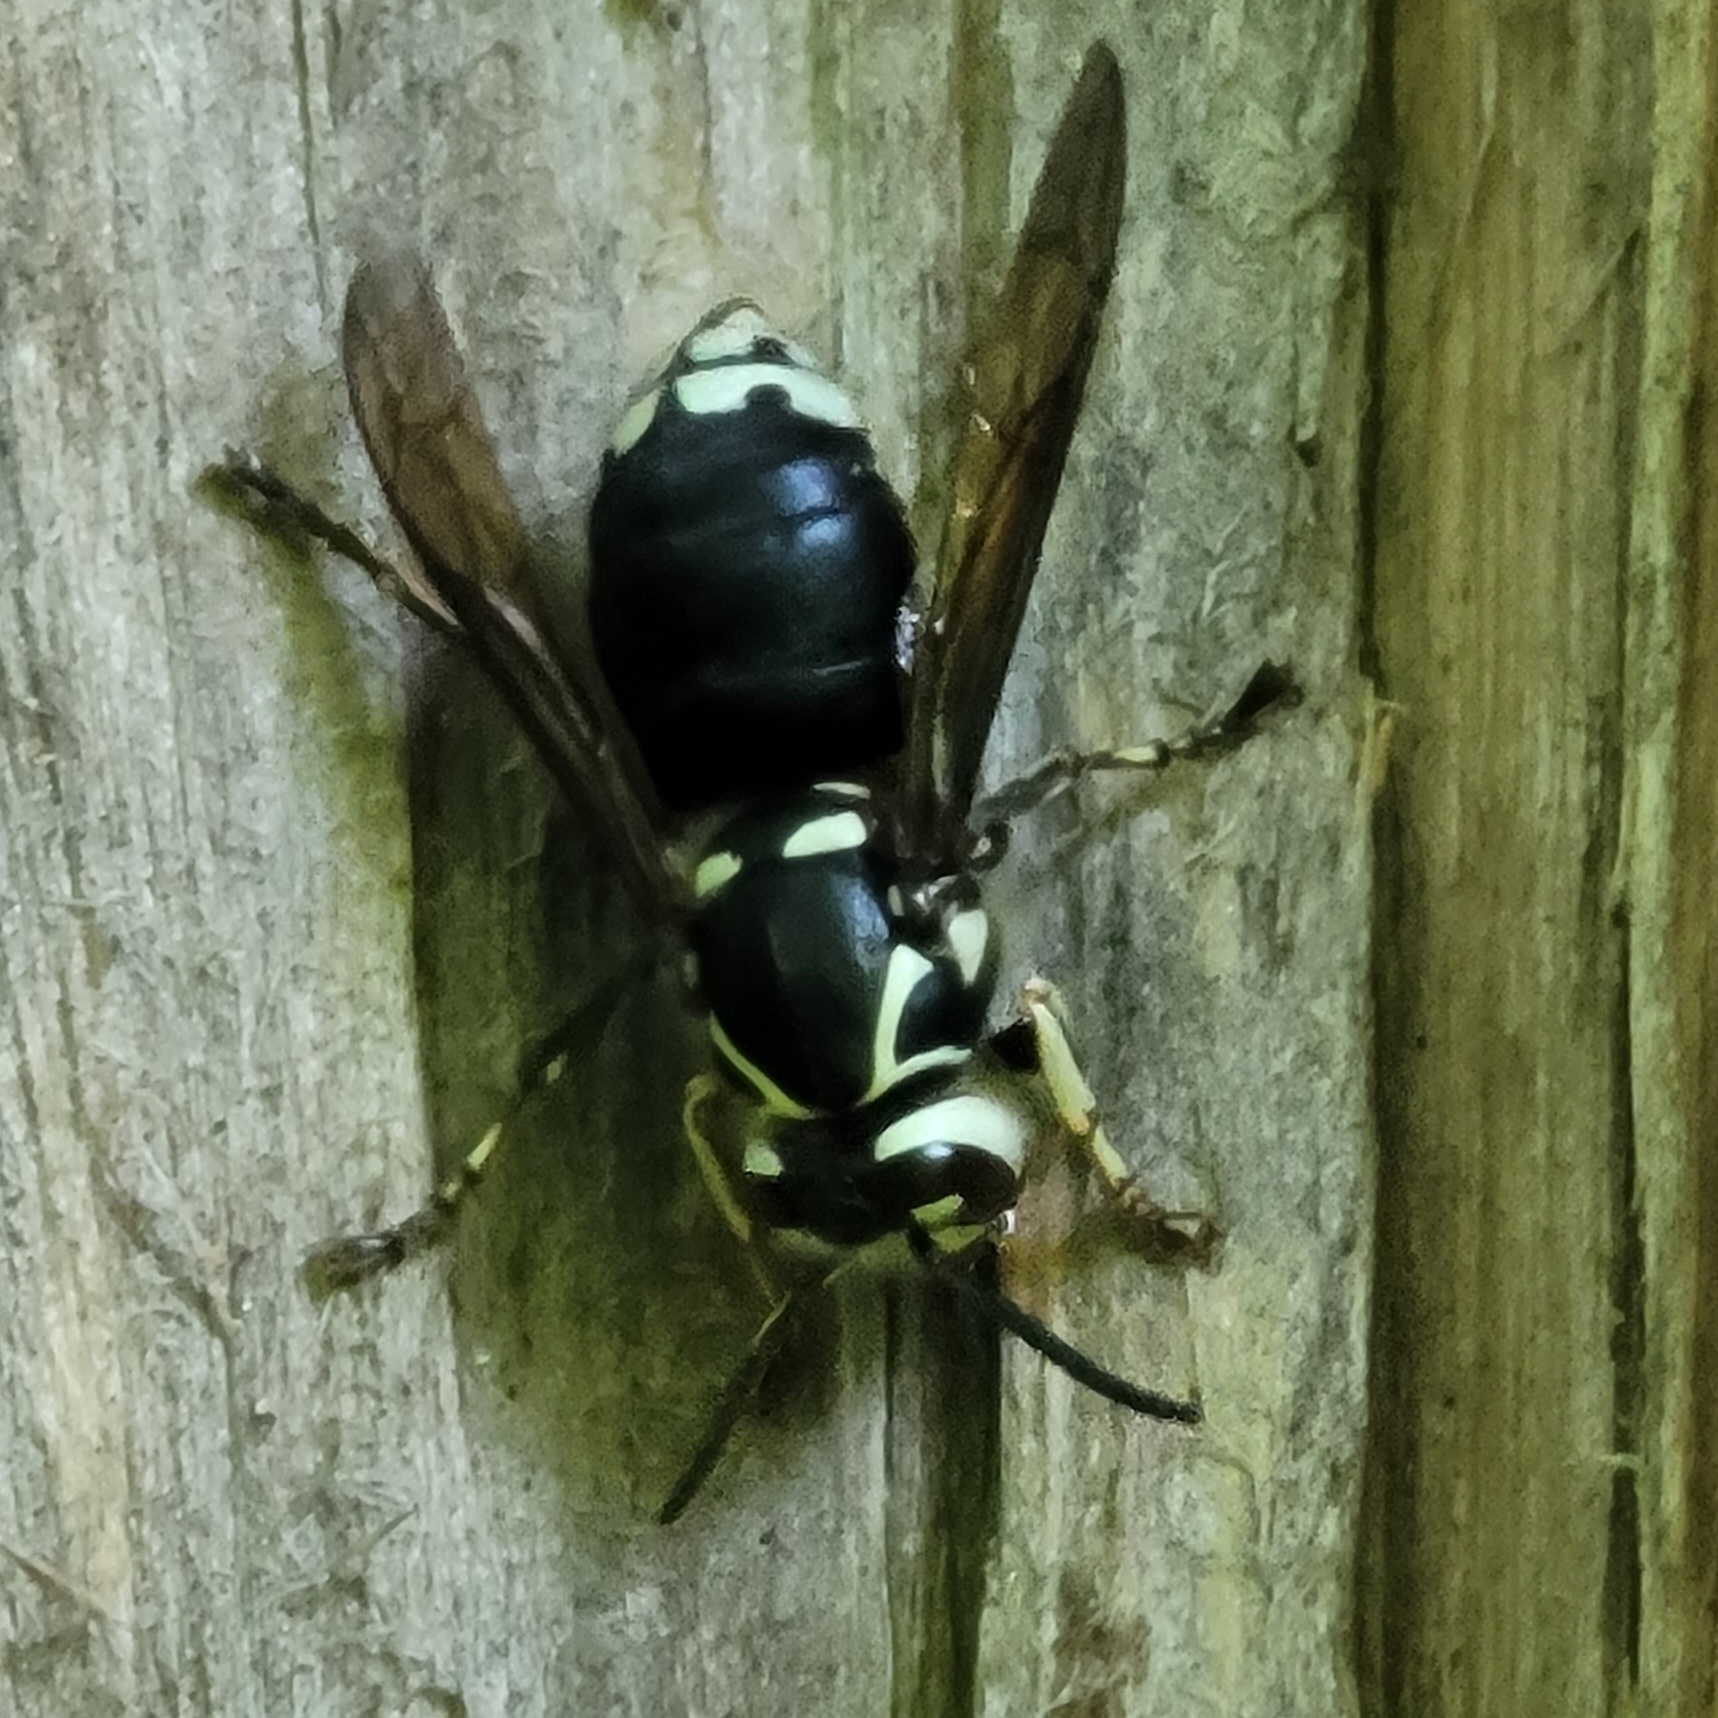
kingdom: Animalia
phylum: Arthropoda
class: Insecta
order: Hymenoptera
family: Vespidae
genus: Dolichovespula
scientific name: Dolichovespula maculata
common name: Bald-faced hornet
